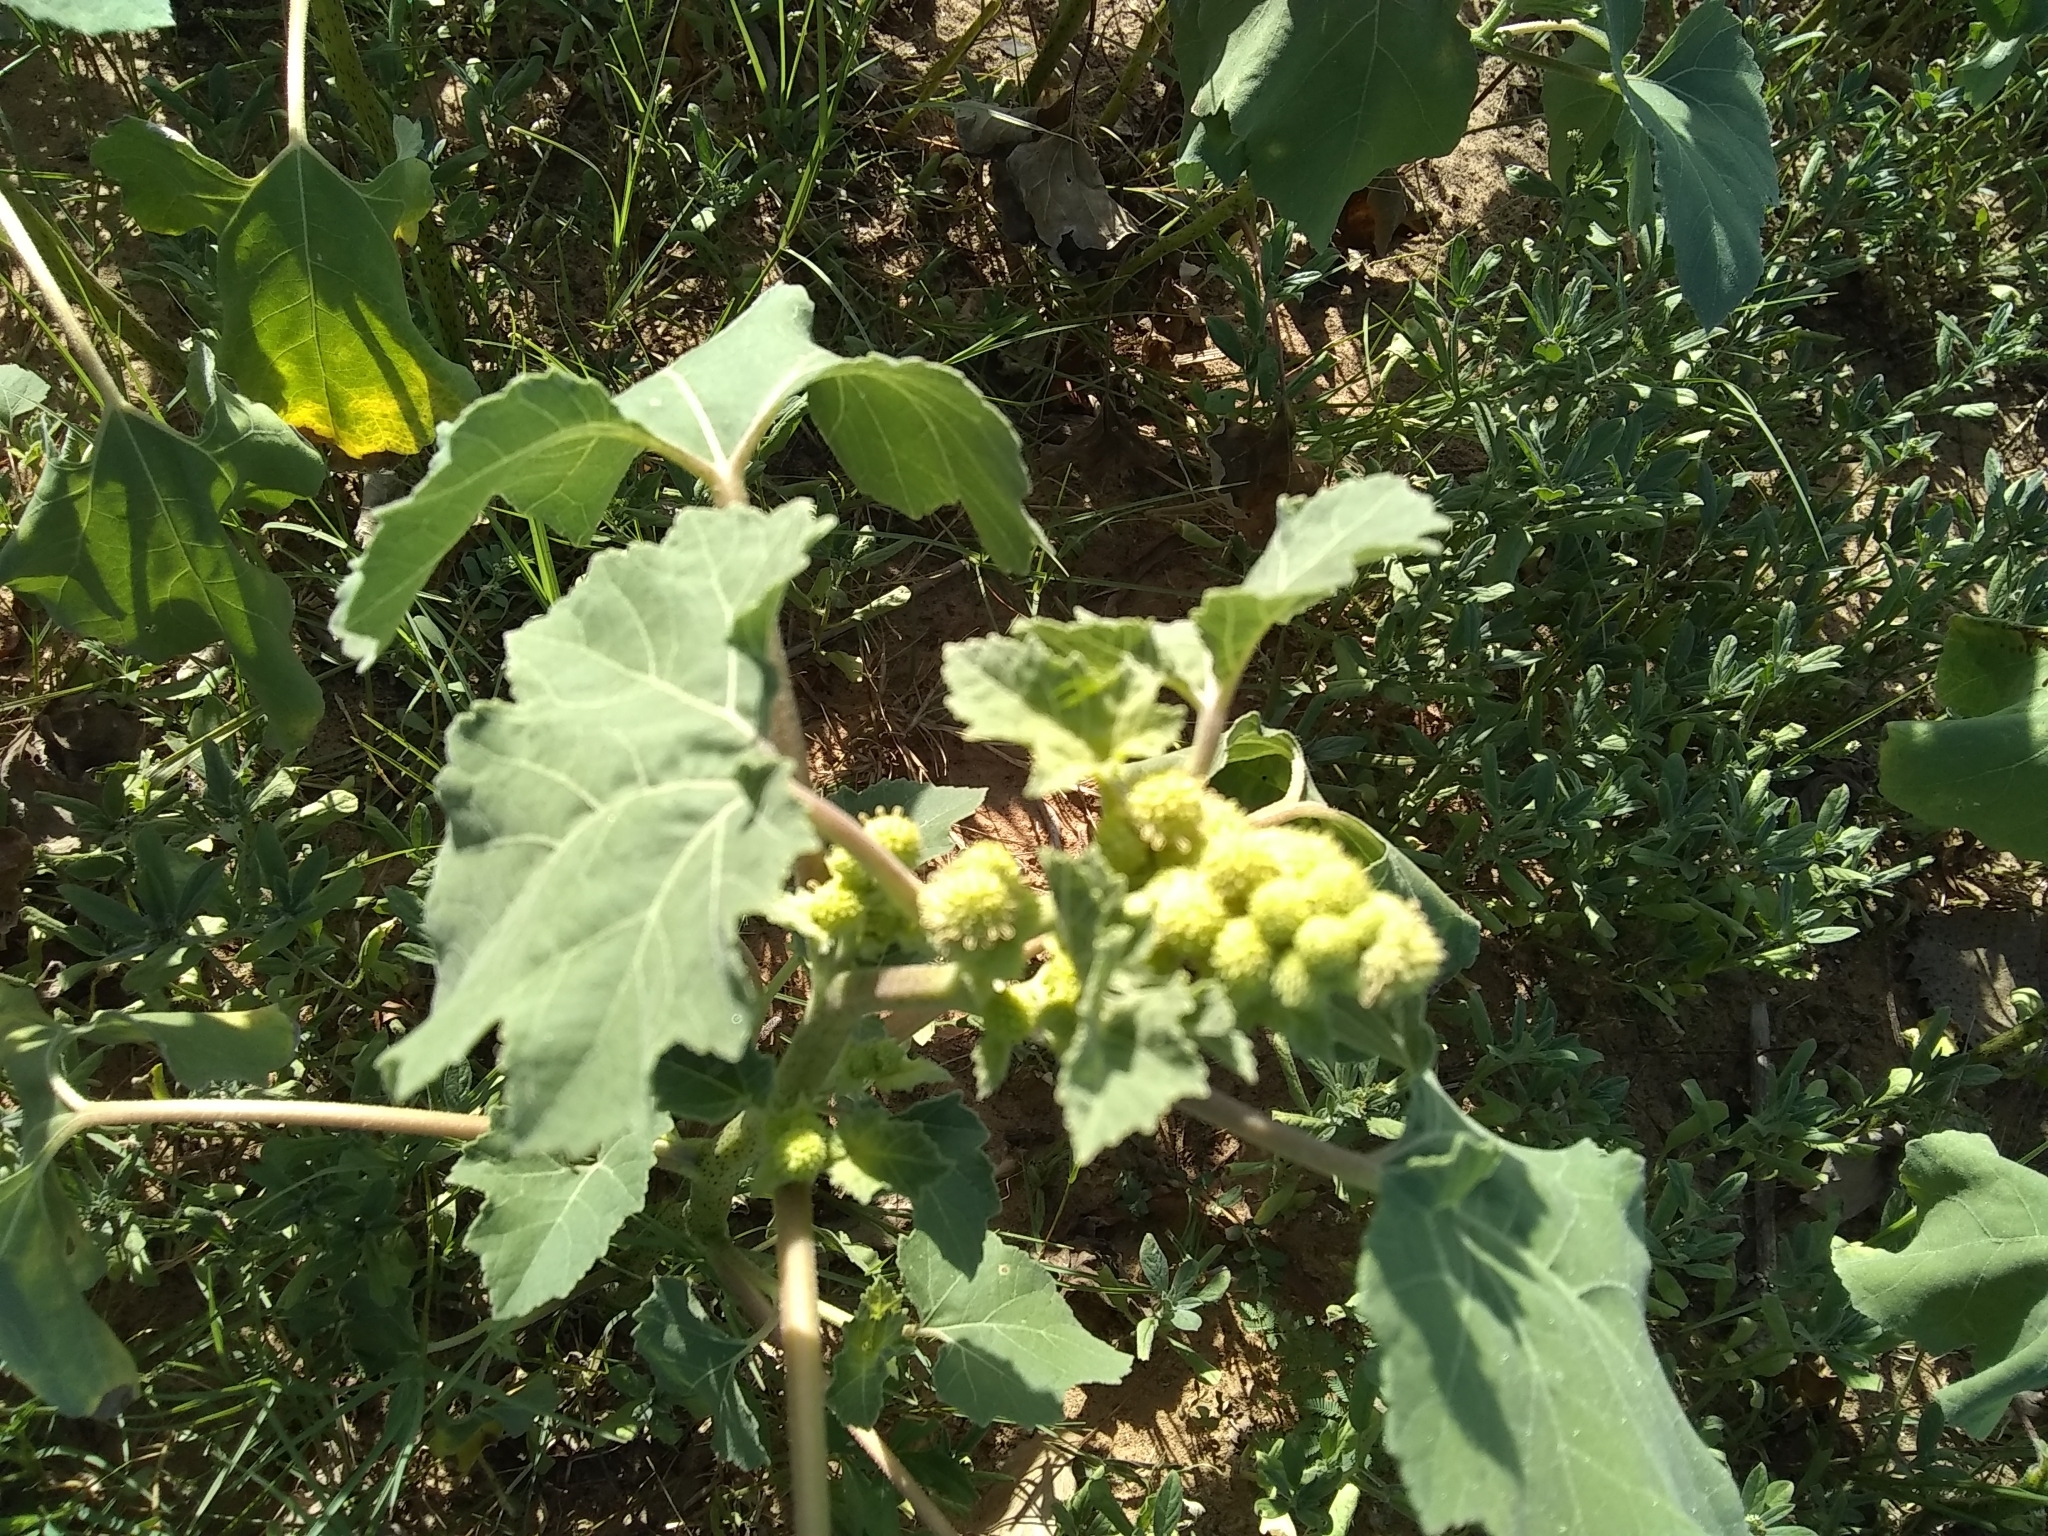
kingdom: Plantae
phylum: Tracheophyta
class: Magnoliopsida
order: Asterales
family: Asteraceae
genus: Xanthium
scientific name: Xanthium strumarium
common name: Rough cocklebur
